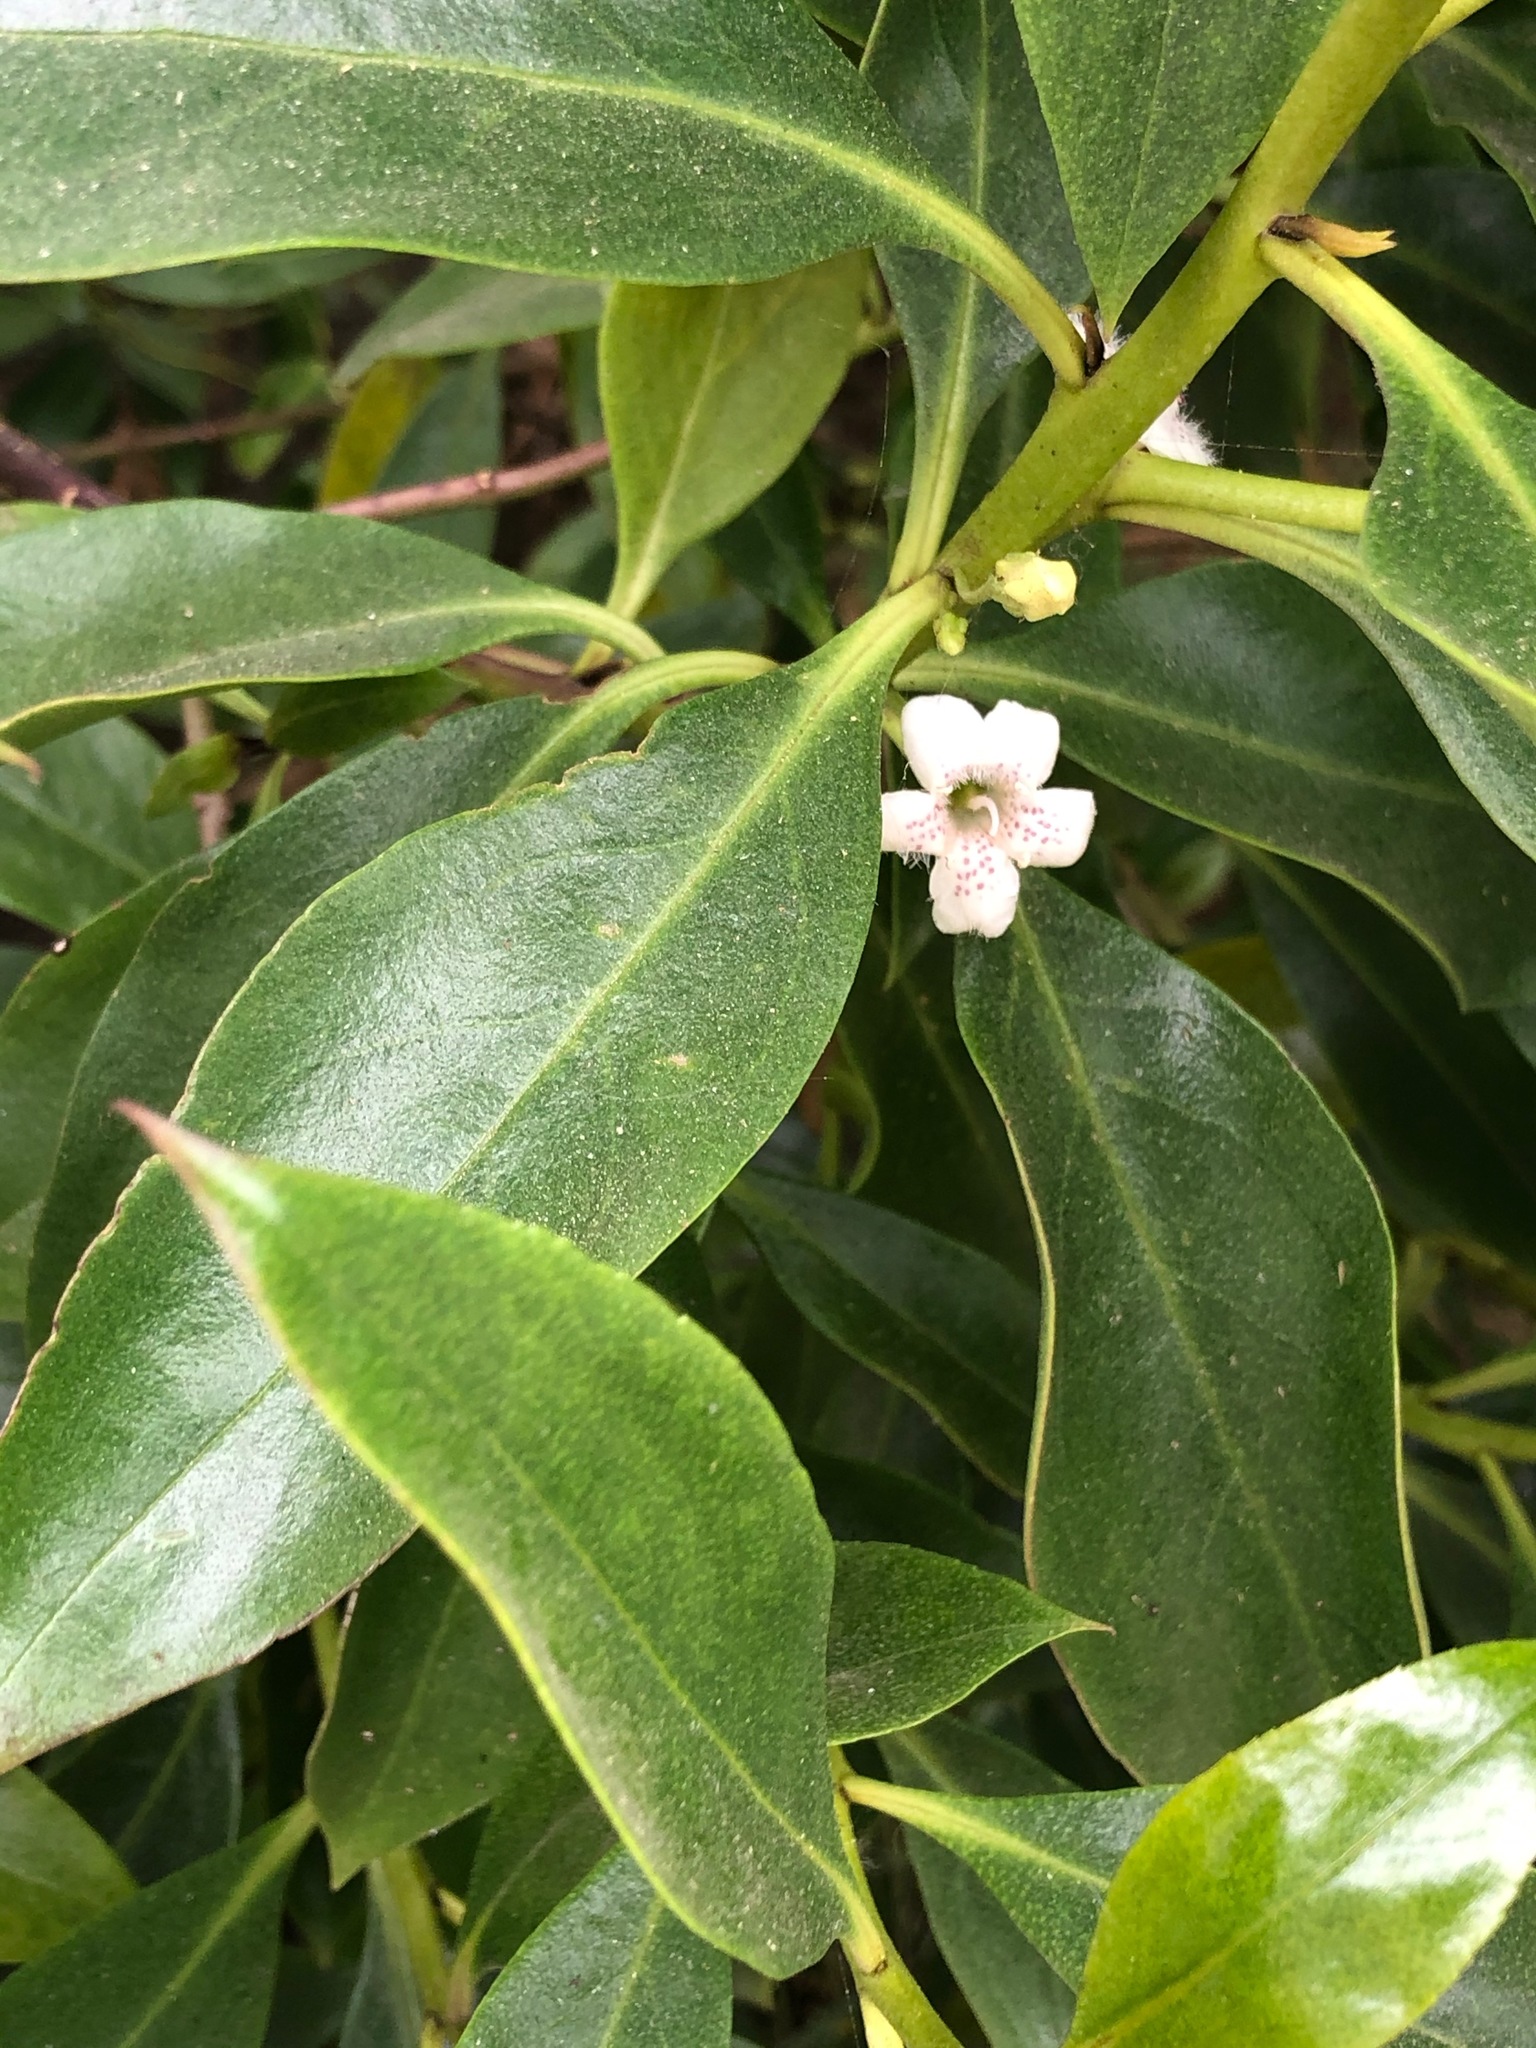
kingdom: Plantae
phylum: Tracheophyta
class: Magnoliopsida
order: Lamiales
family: Scrophulariaceae
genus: Myoporum
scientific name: Myoporum laetum
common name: Ngaio tree
